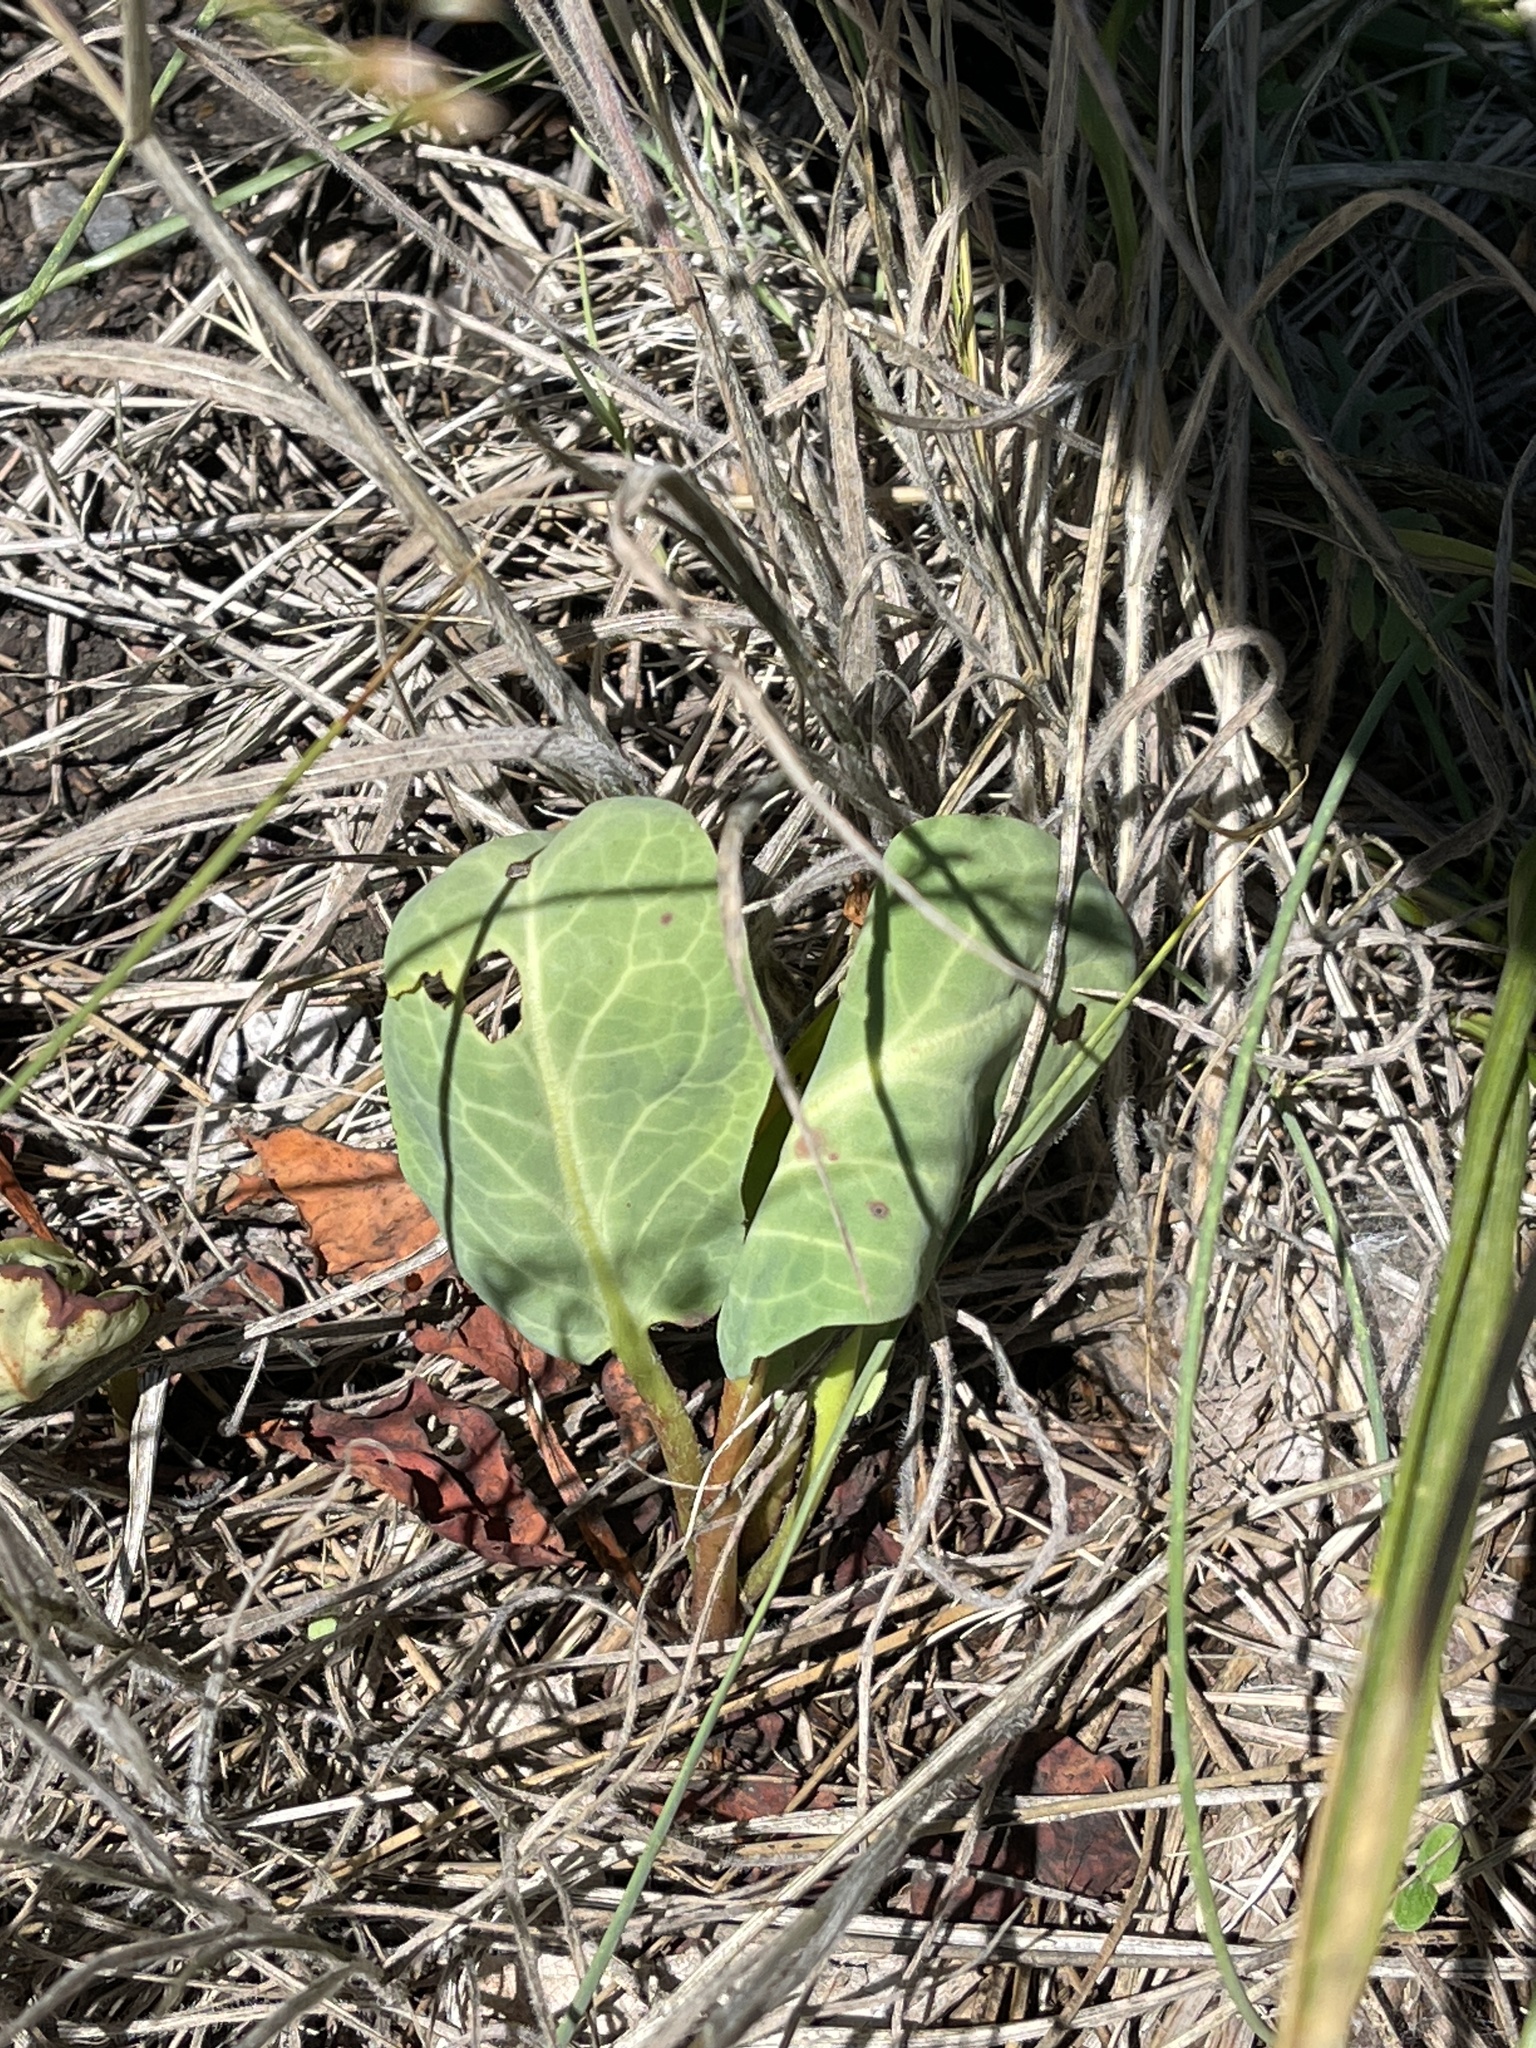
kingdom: Plantae
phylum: Tracheophyta
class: Magnoliopsida
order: Piperales
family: Saururaceae
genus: Anemopsis
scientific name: Anemopsis californica
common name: Apache-beads
